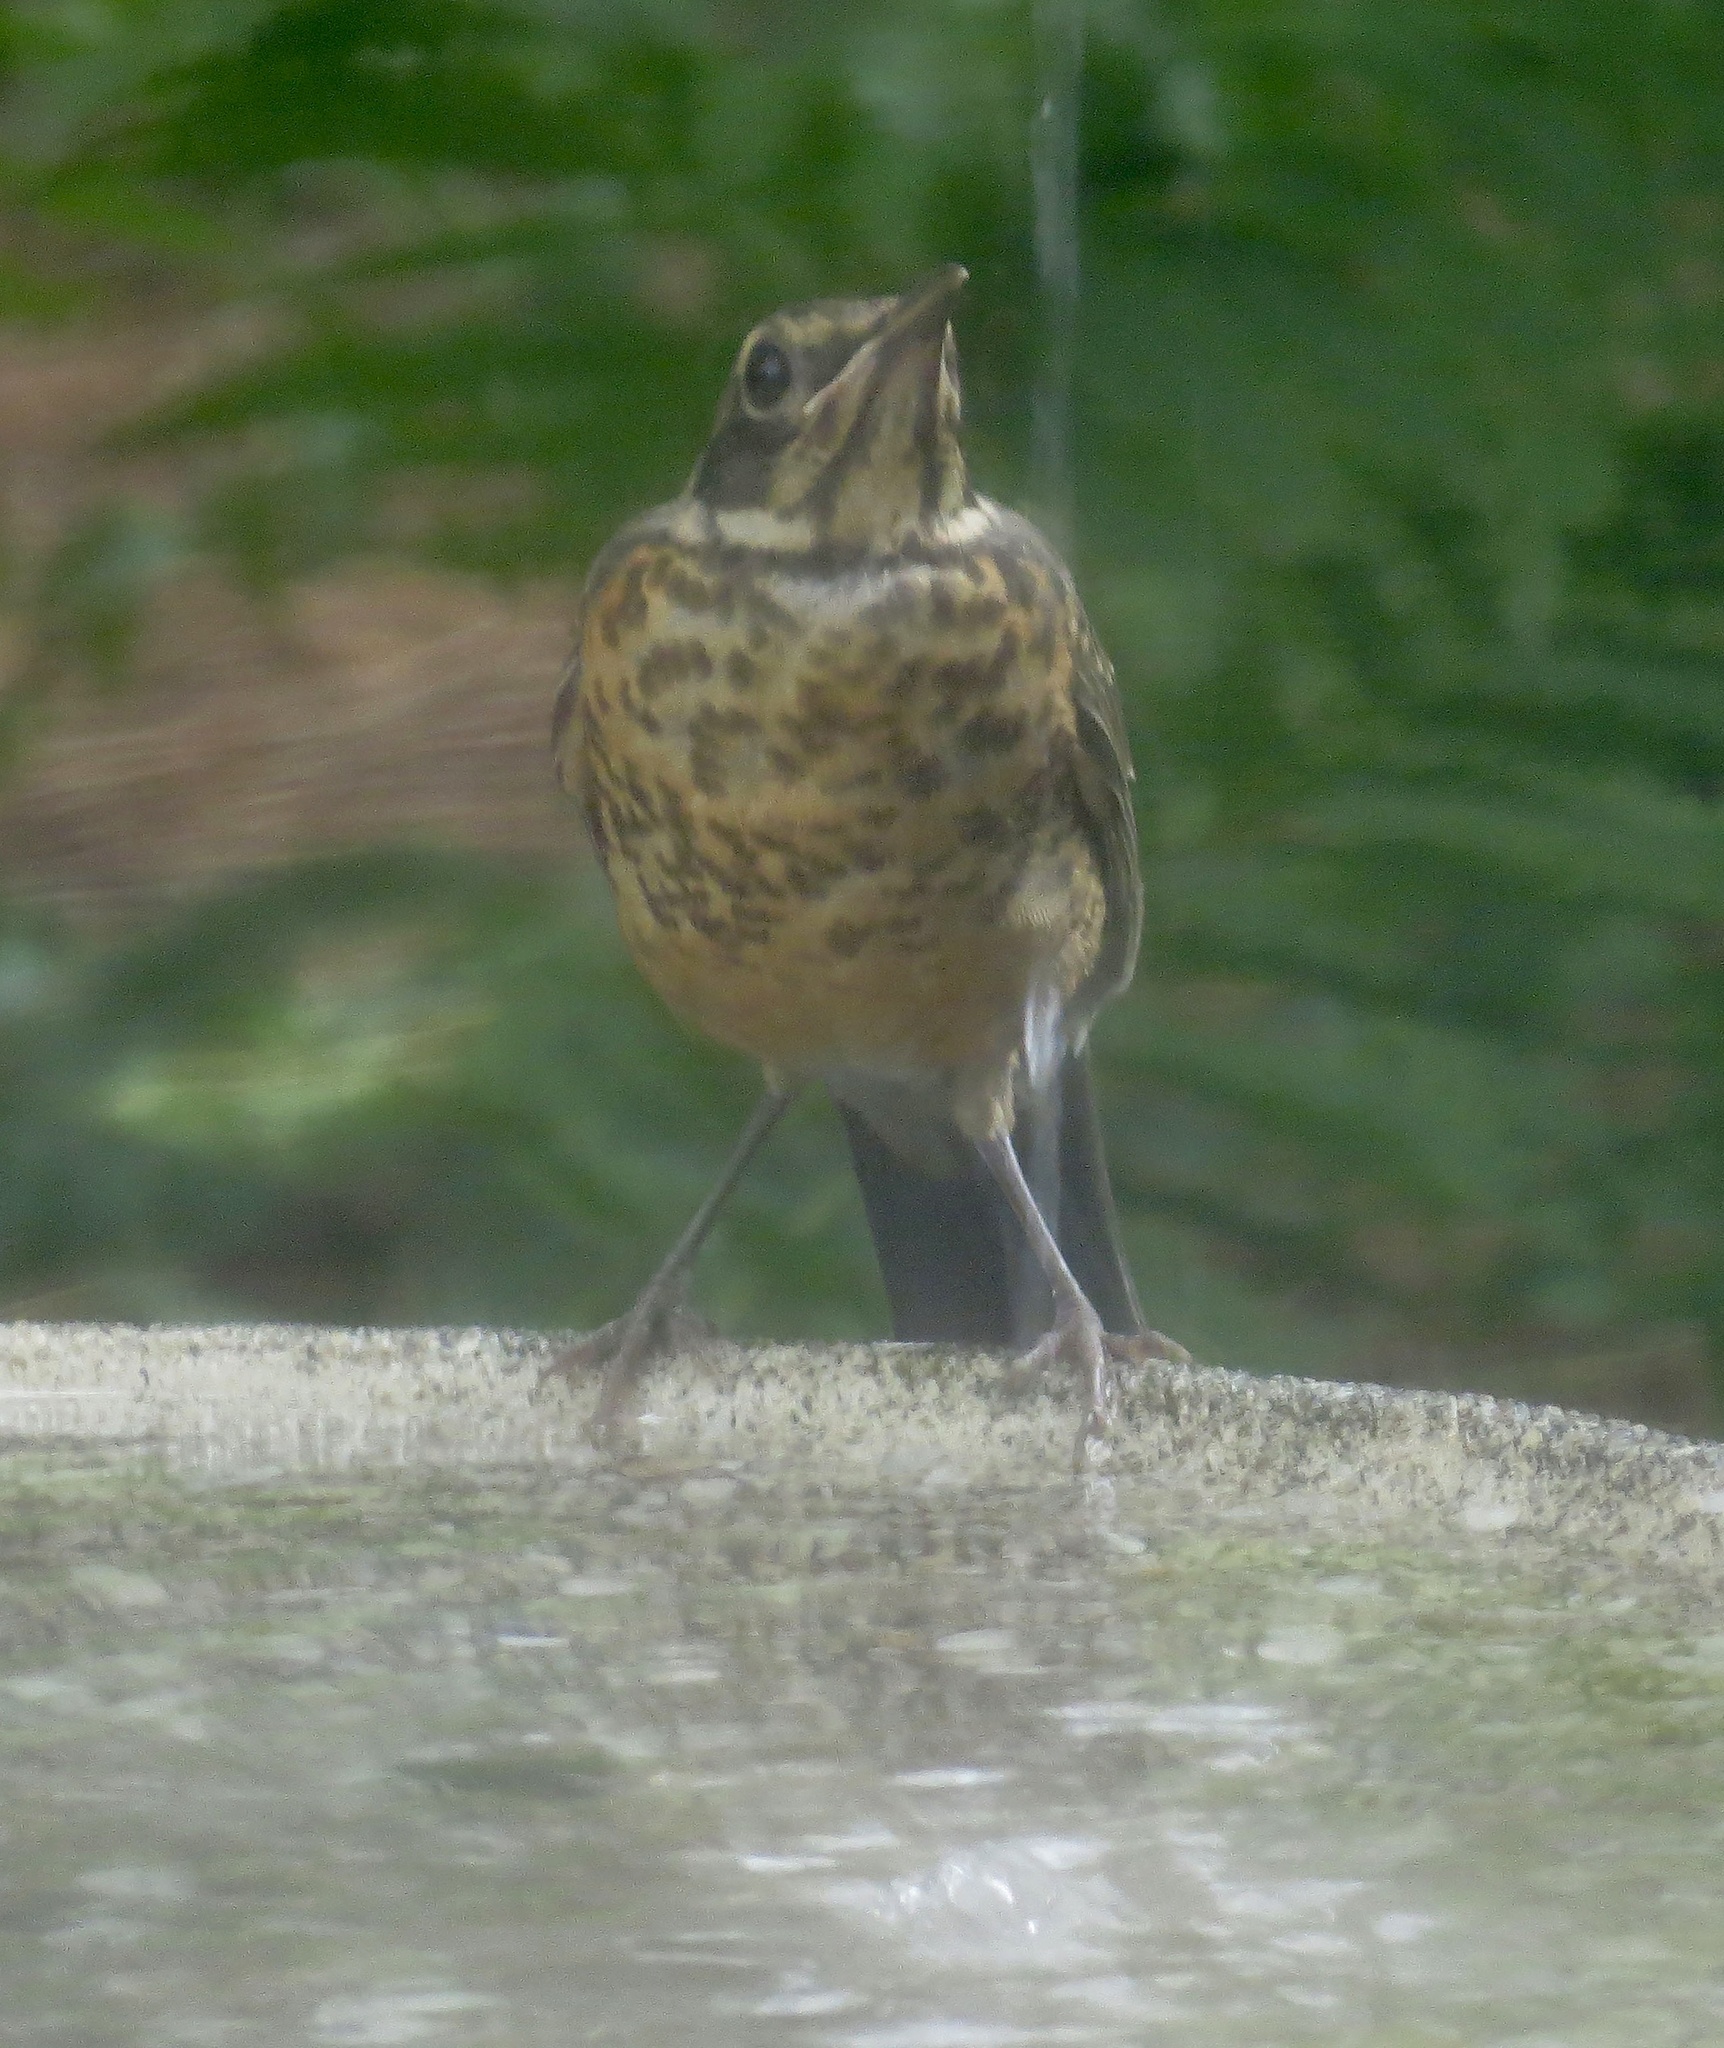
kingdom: Animalia
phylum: Chordata
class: Aves
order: Passeriformes
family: Turdidae
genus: Turdus
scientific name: Turdus migratorius
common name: American robin
